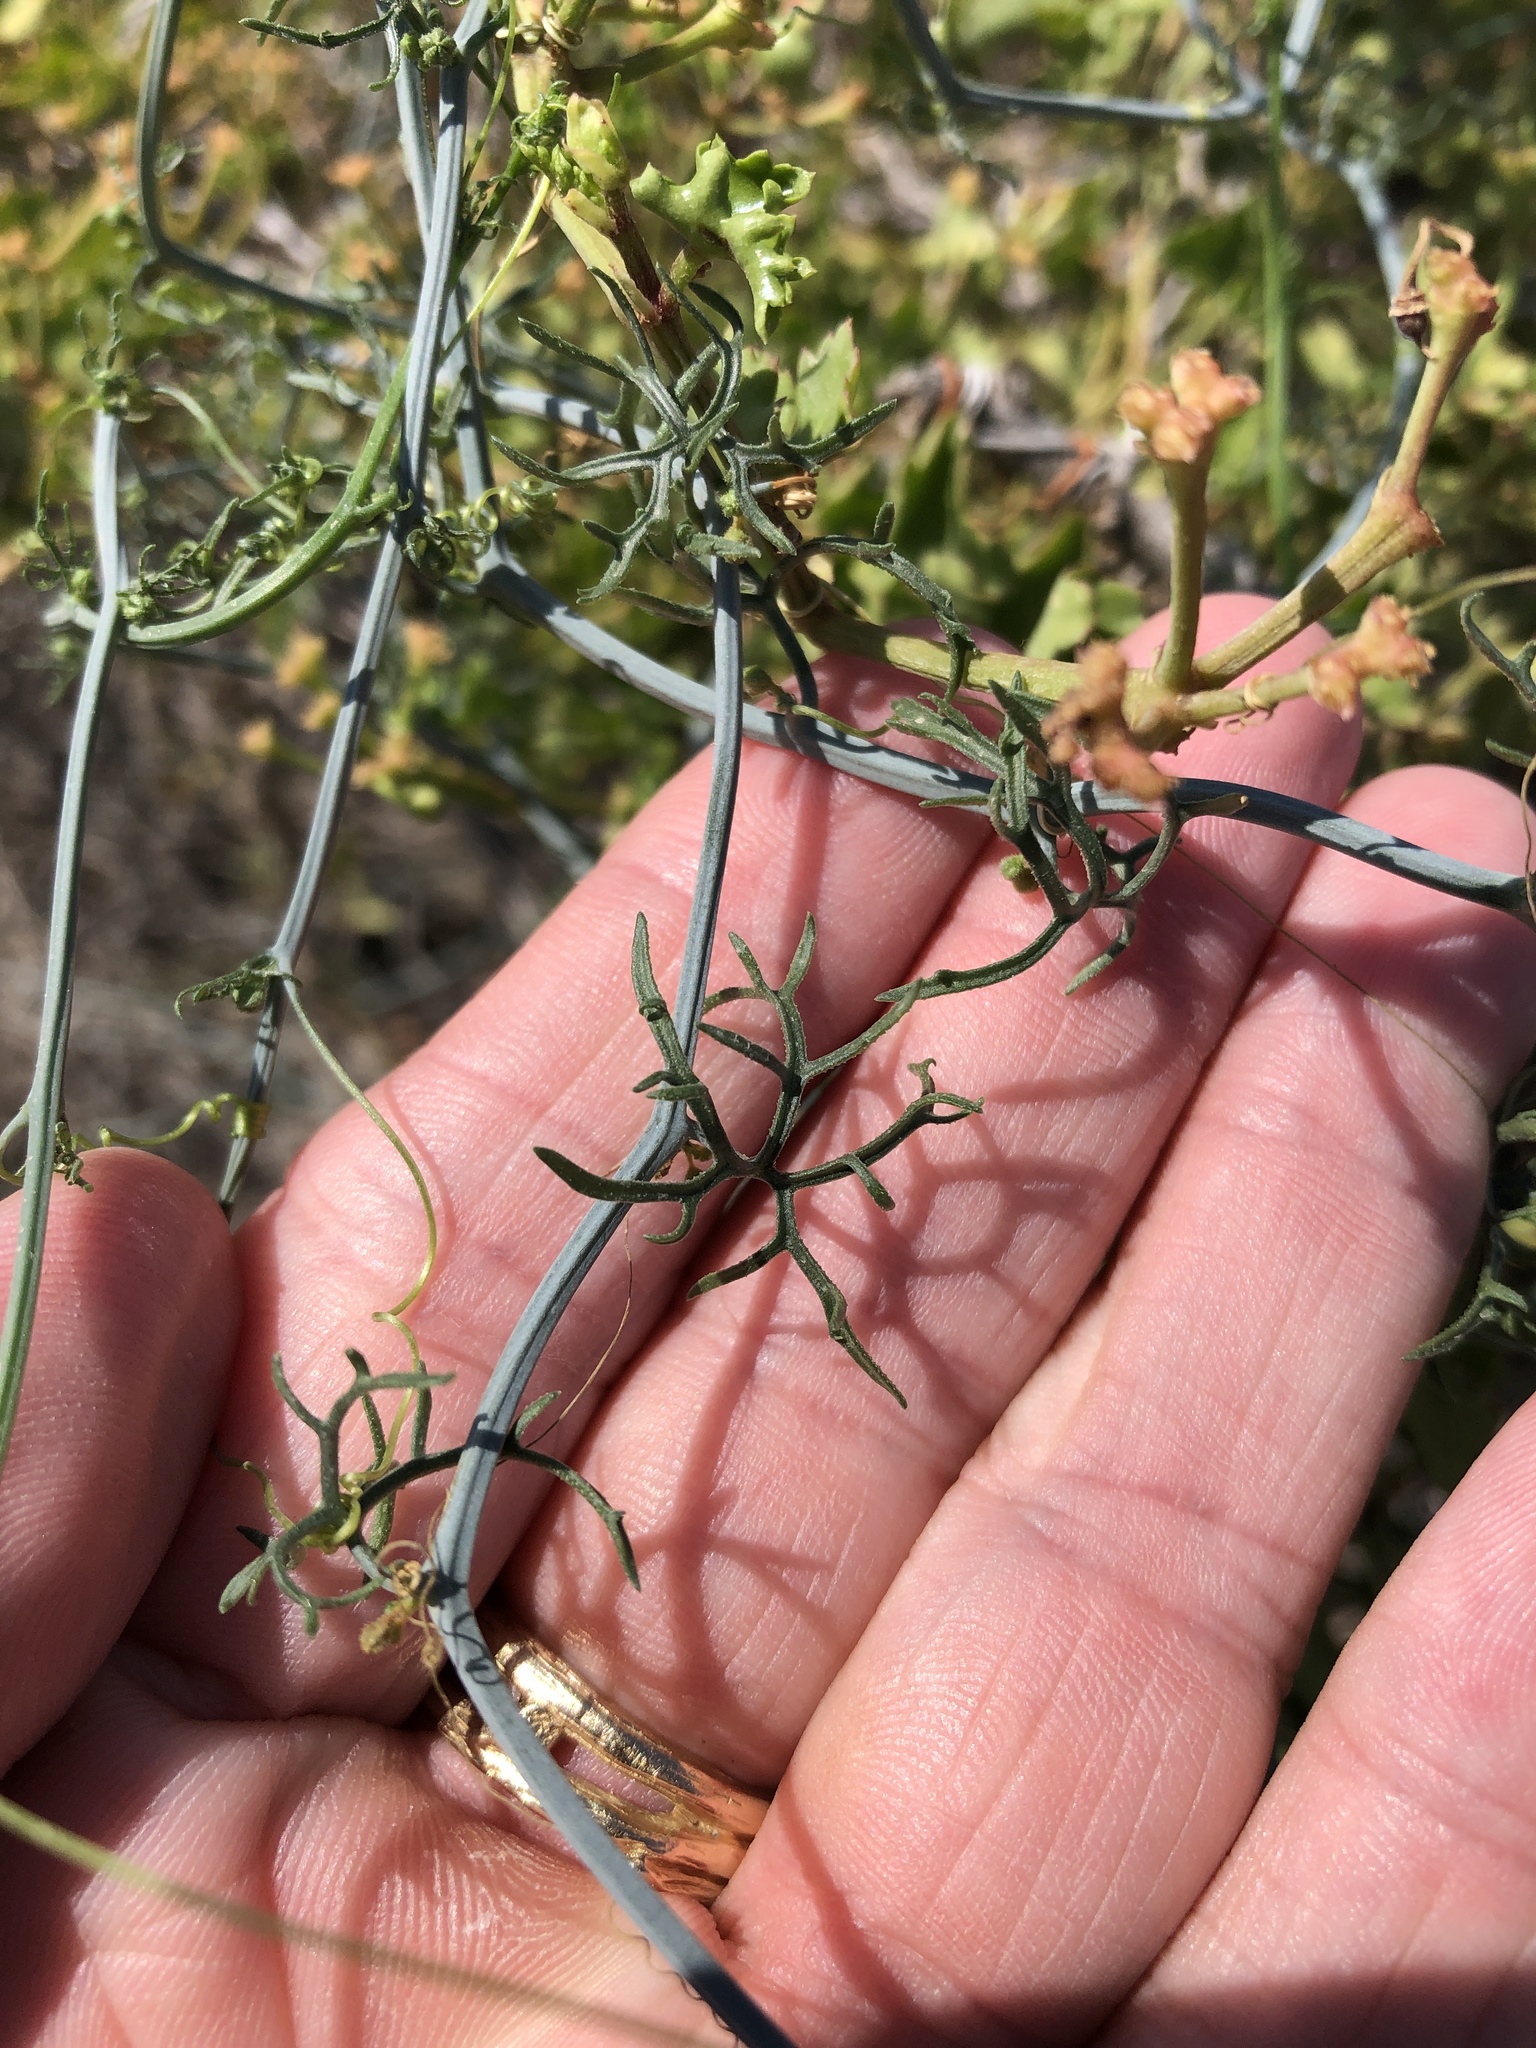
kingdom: Plantae
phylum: Tracheophyta
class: Magnoliopsida
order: Cucurbitales
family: Cucurbitaceae
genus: Ibervillea
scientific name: Ibervillea tenuisecta
